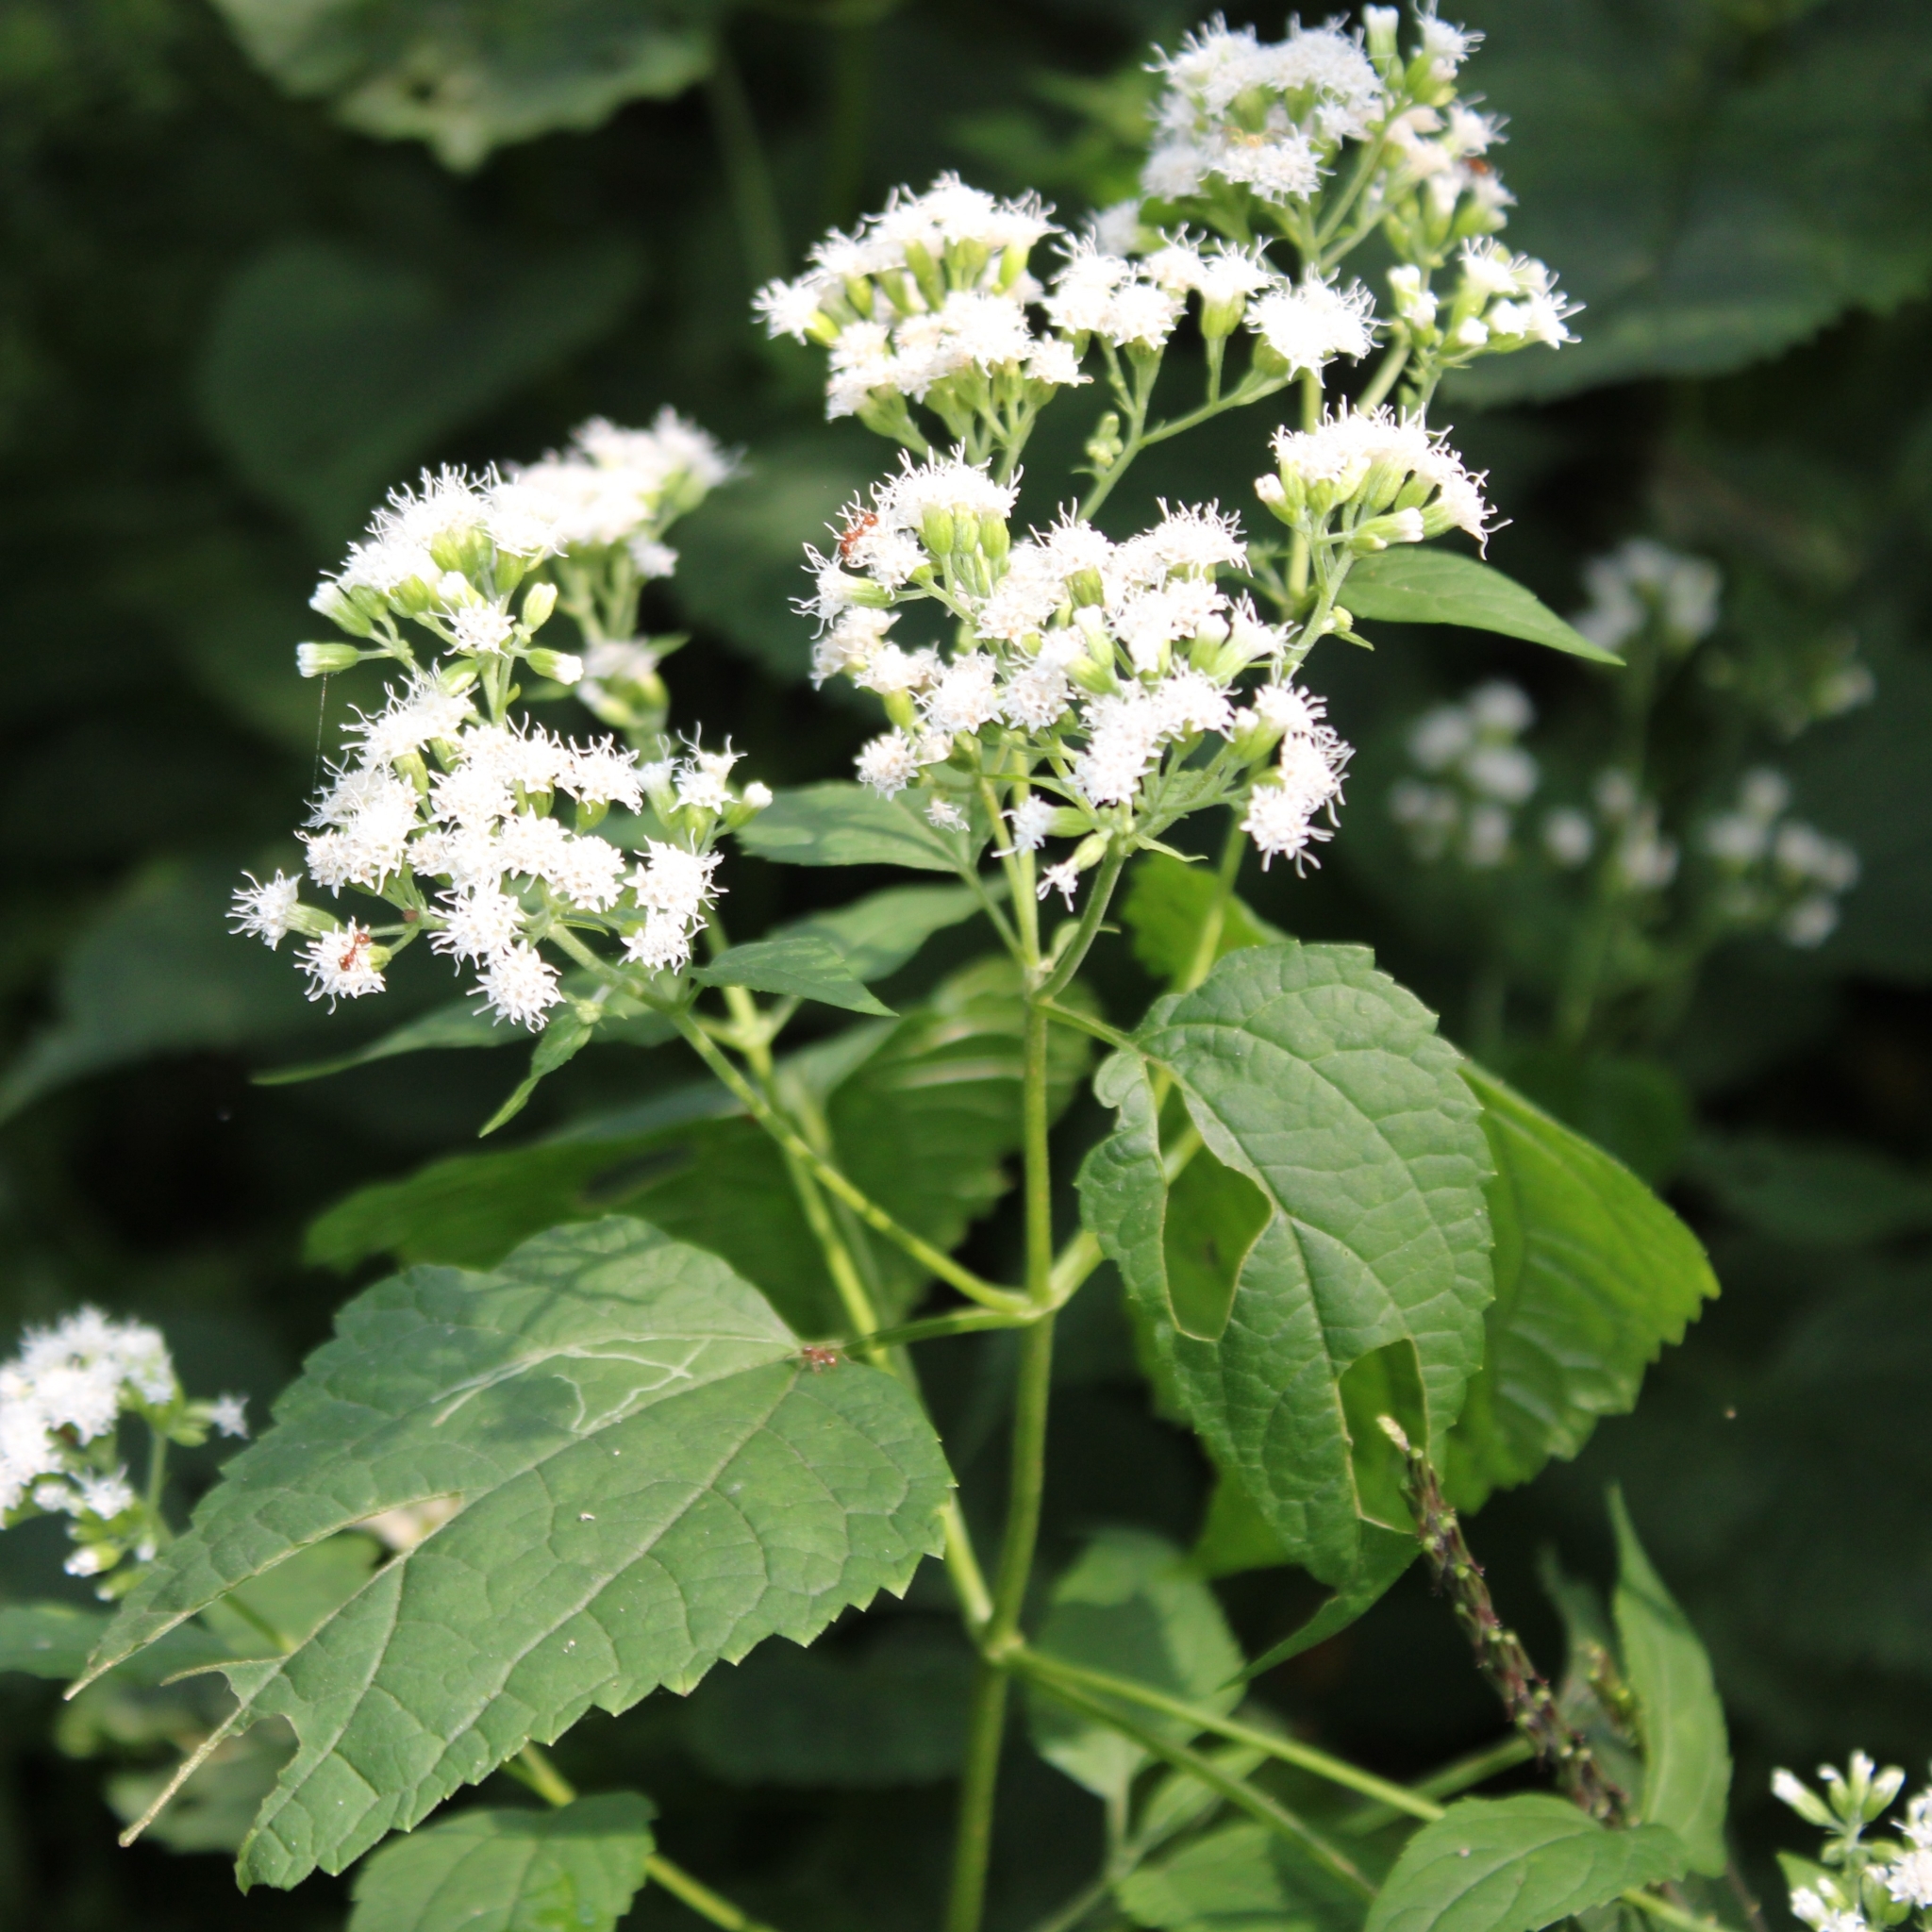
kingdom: Plantae
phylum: Tracheophyta
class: Magnoliopsida
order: Asterales
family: Asteraceae
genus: Ageratina
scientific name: Ageratina altissima
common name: White snakeroot
